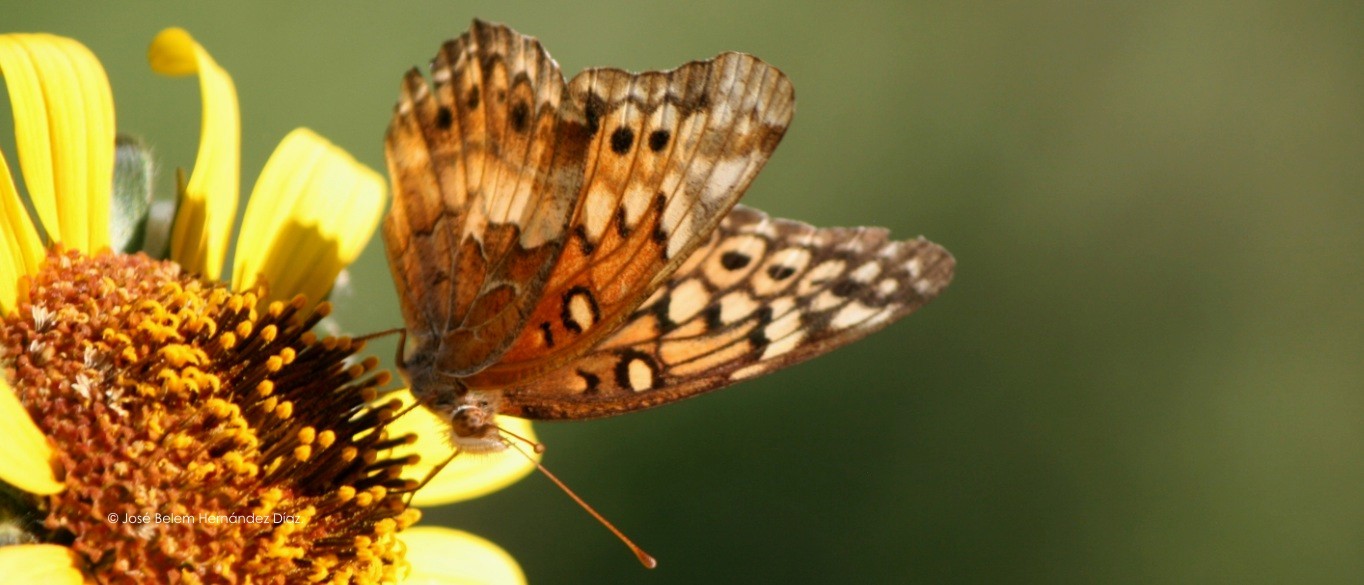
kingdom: Animalia
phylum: Arthropoda
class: Insecta
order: Lepidoptera
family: Nymphalidae
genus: Euptoieta
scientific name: Euptoieta claudia
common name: Variegated fritillary
